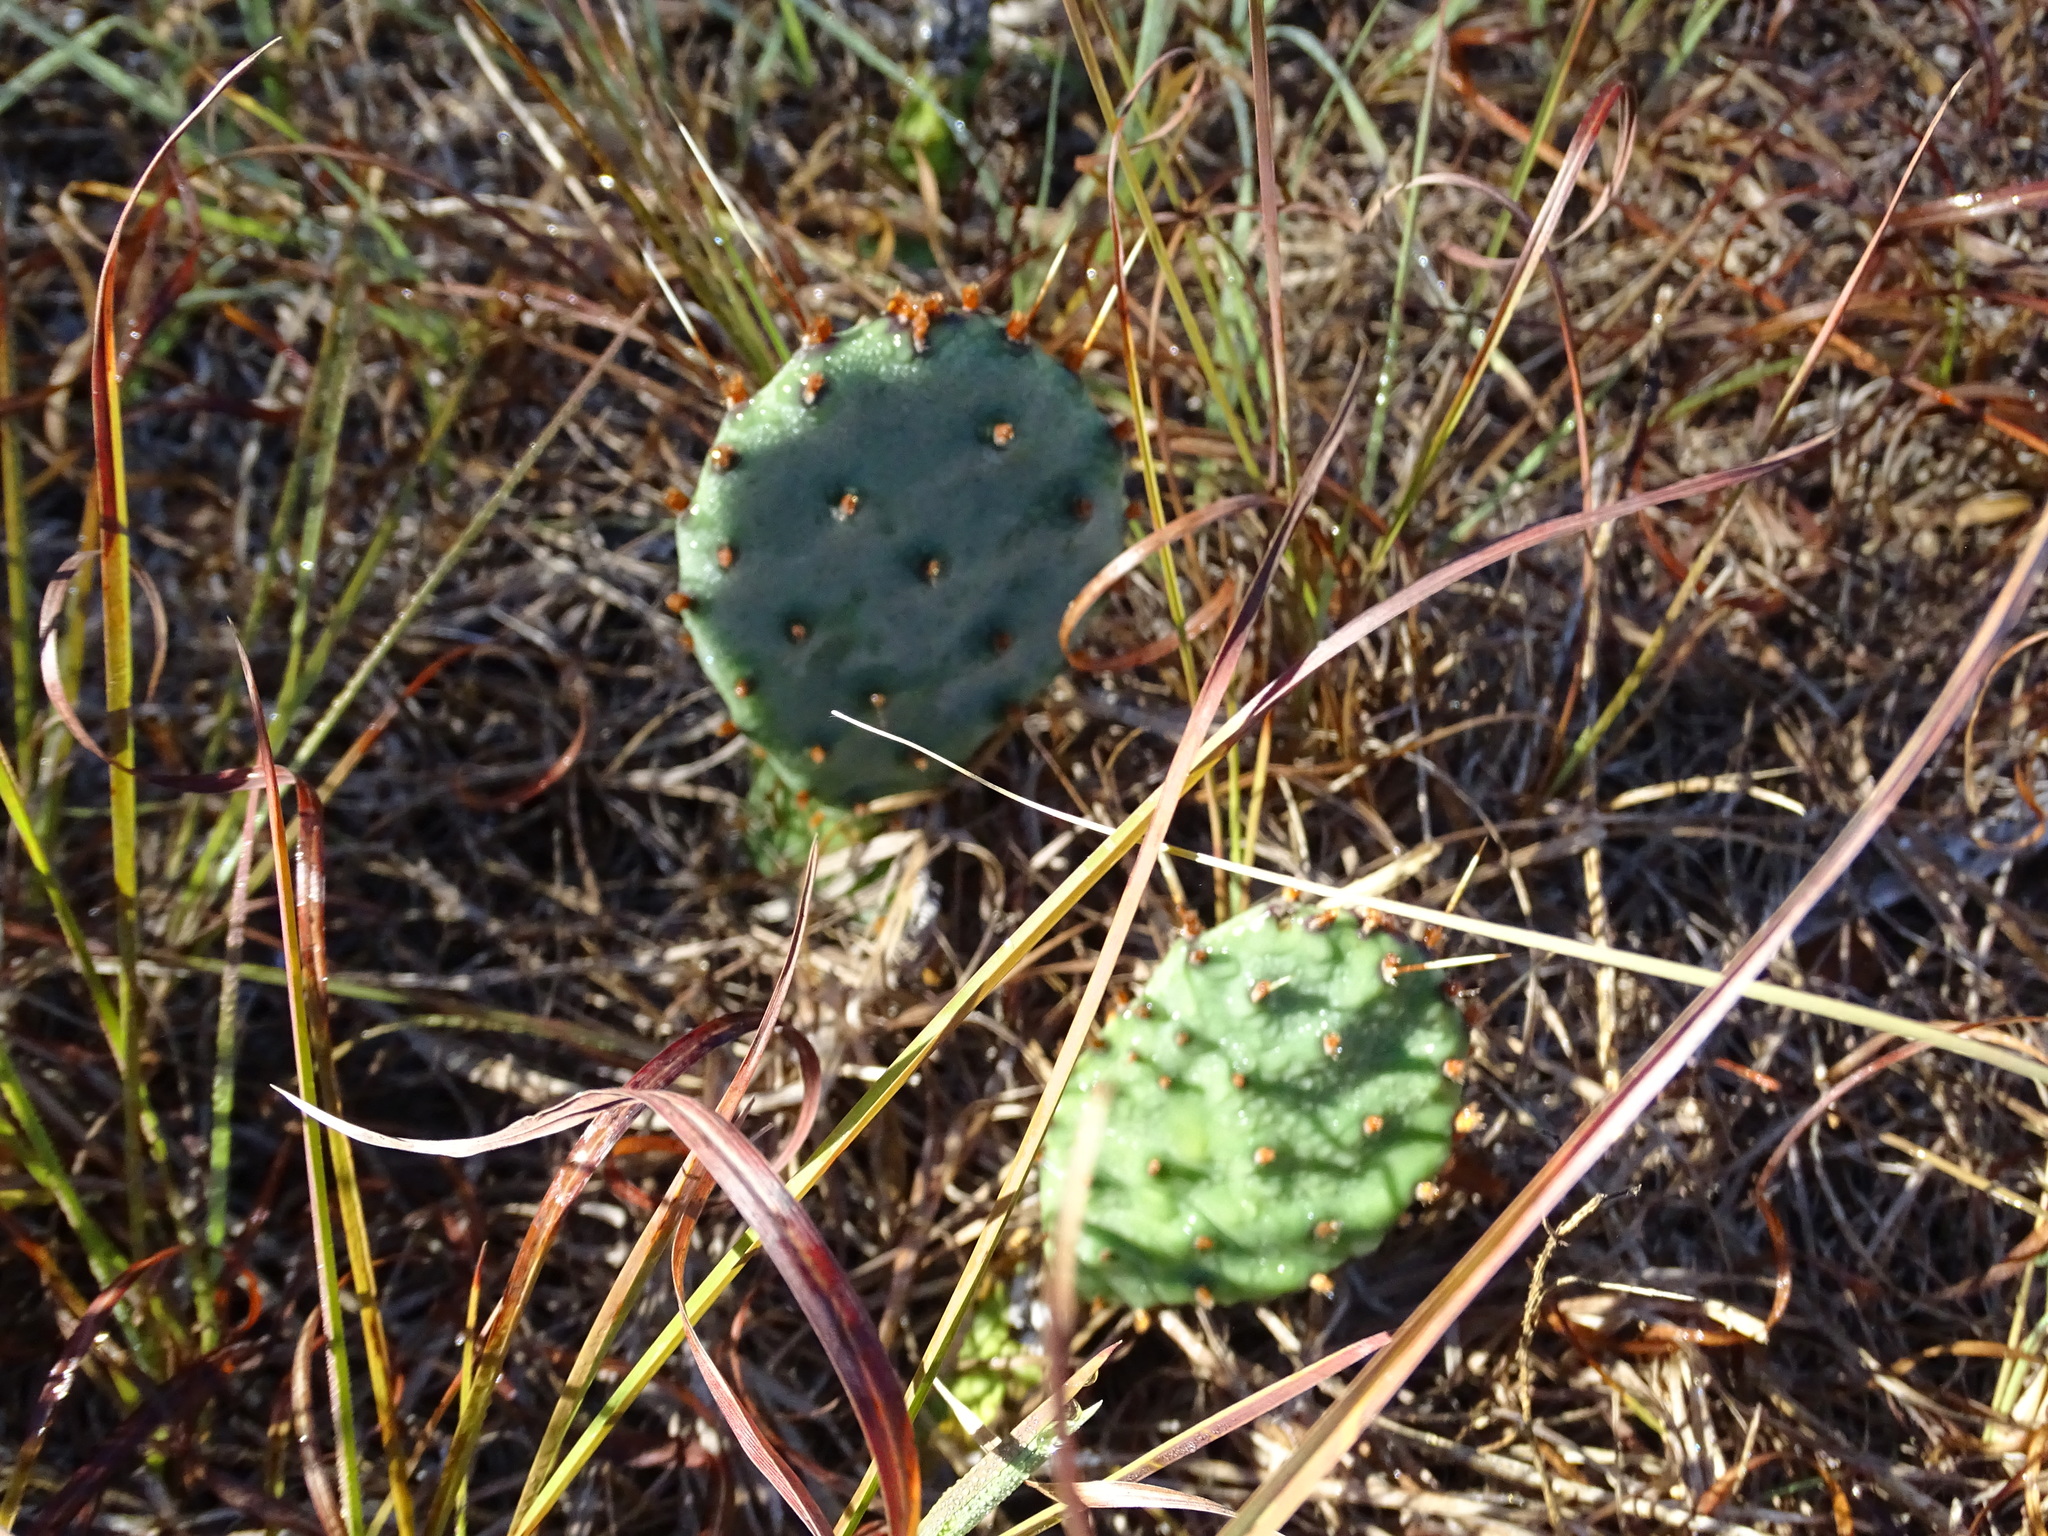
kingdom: Plantae
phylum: Tracheophyta
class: Magnoliopsida
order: Caryophyllales
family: Cactaceae
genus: Opuntia
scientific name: Opuntia macrorhiza
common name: Grassland pricklypear
